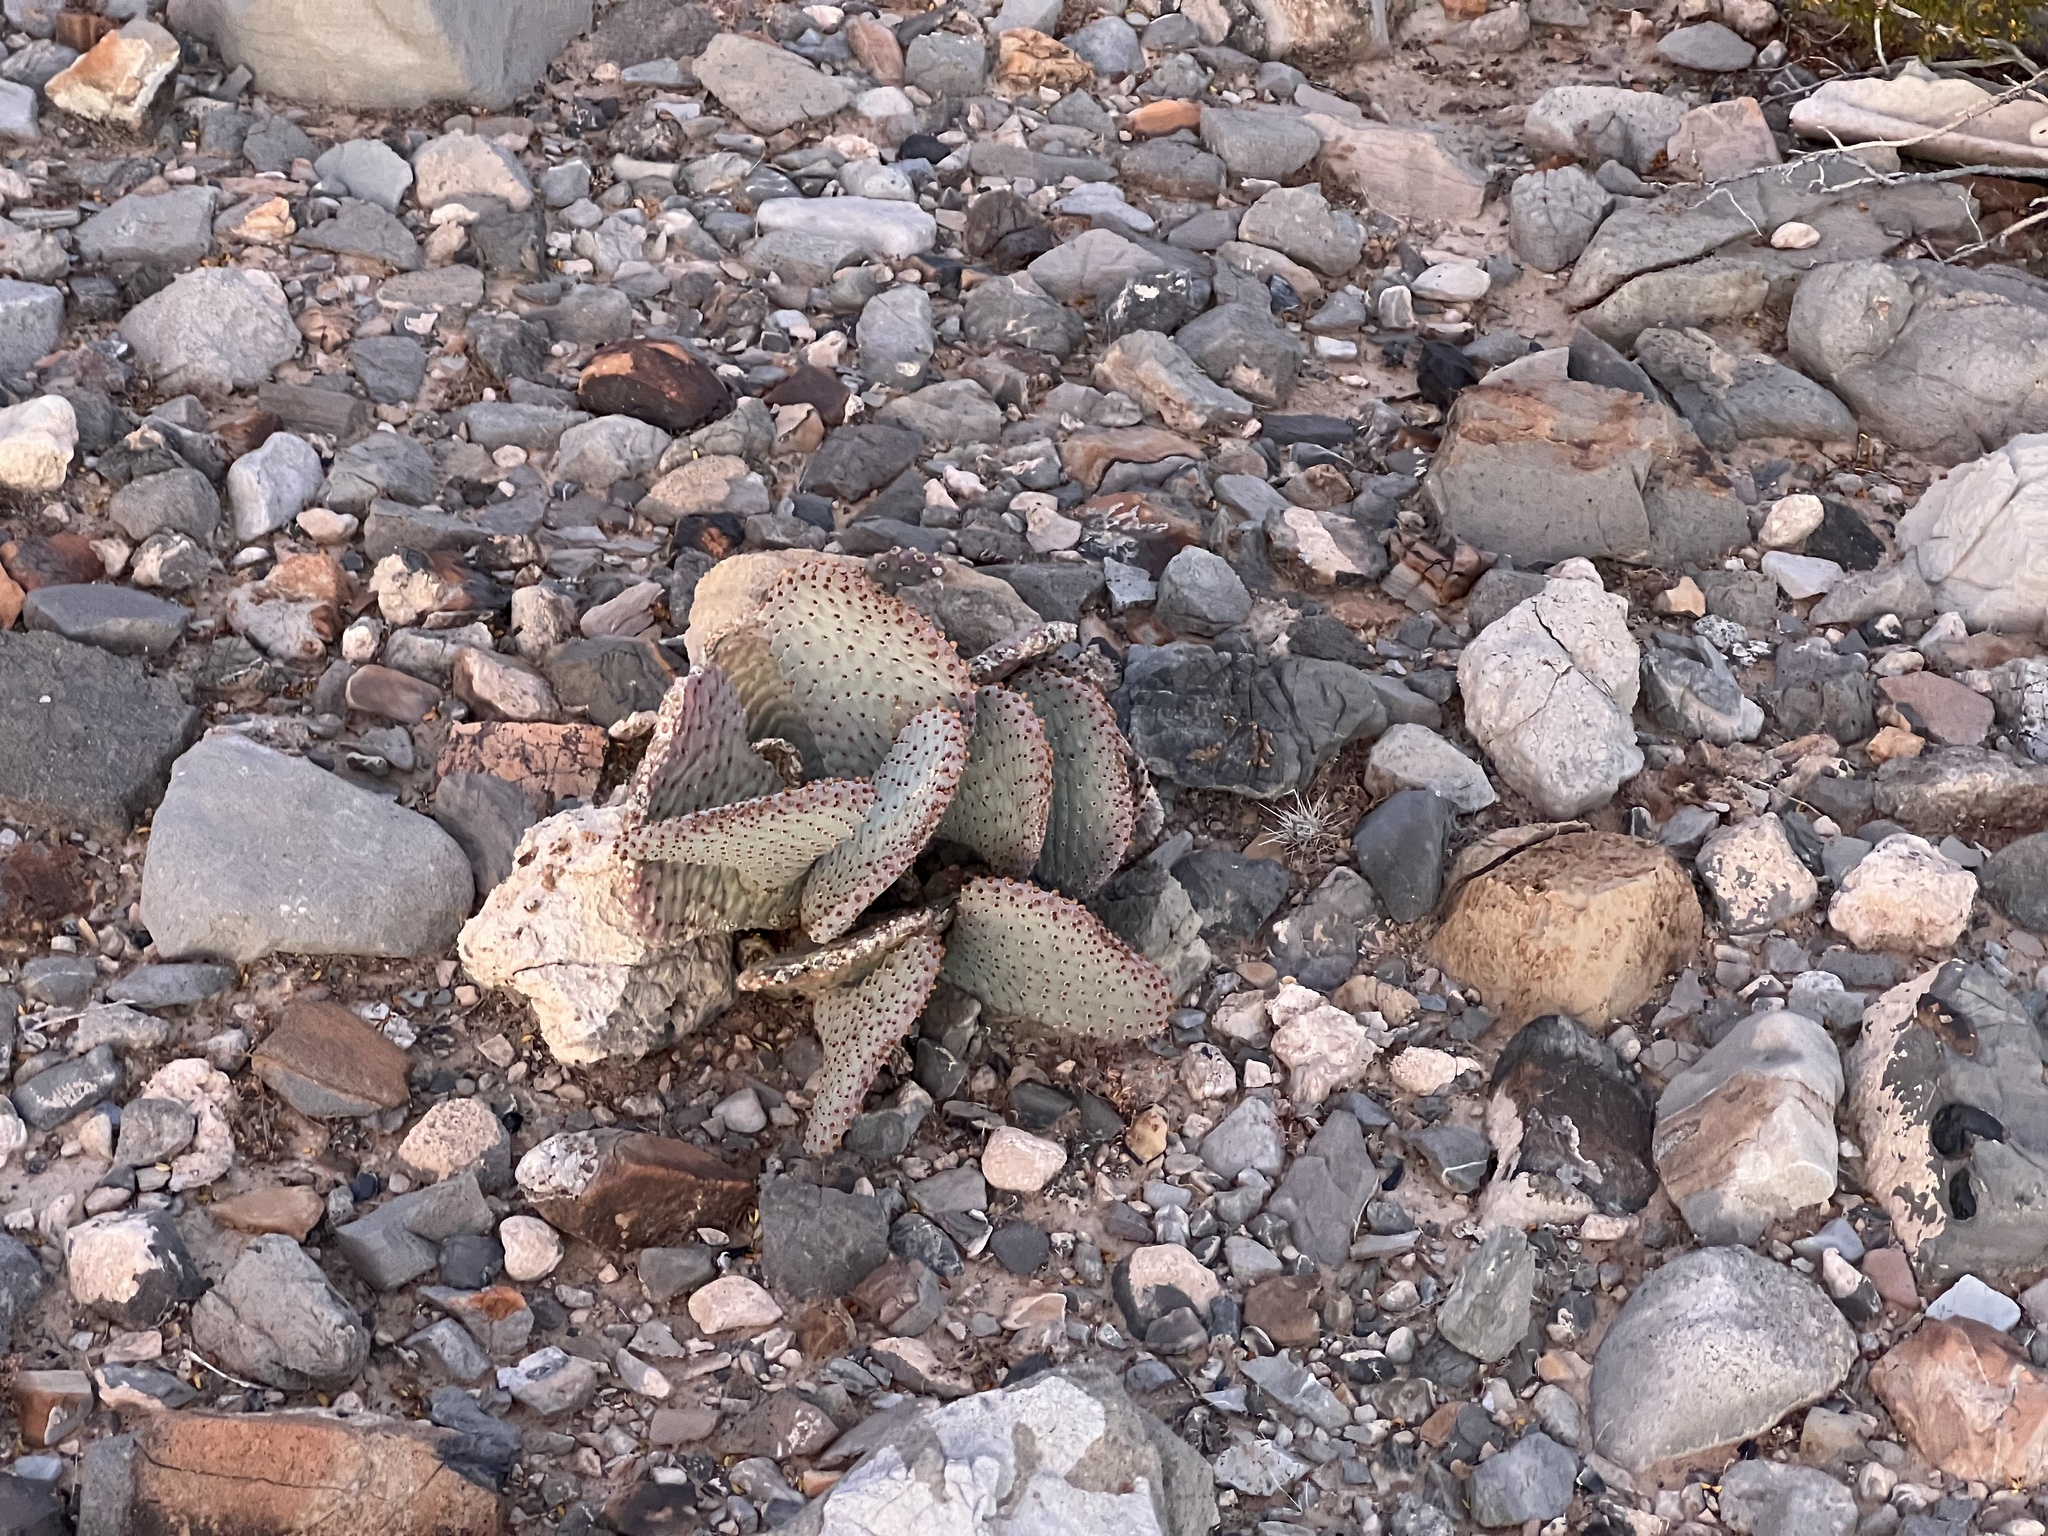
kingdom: Plantae
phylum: Tracheophyta
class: Magnoliopsida
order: Caryophyllales
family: Cactaceae
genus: Opuntia
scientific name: Opuntia basilaris
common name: Beavertail prickly-pear
